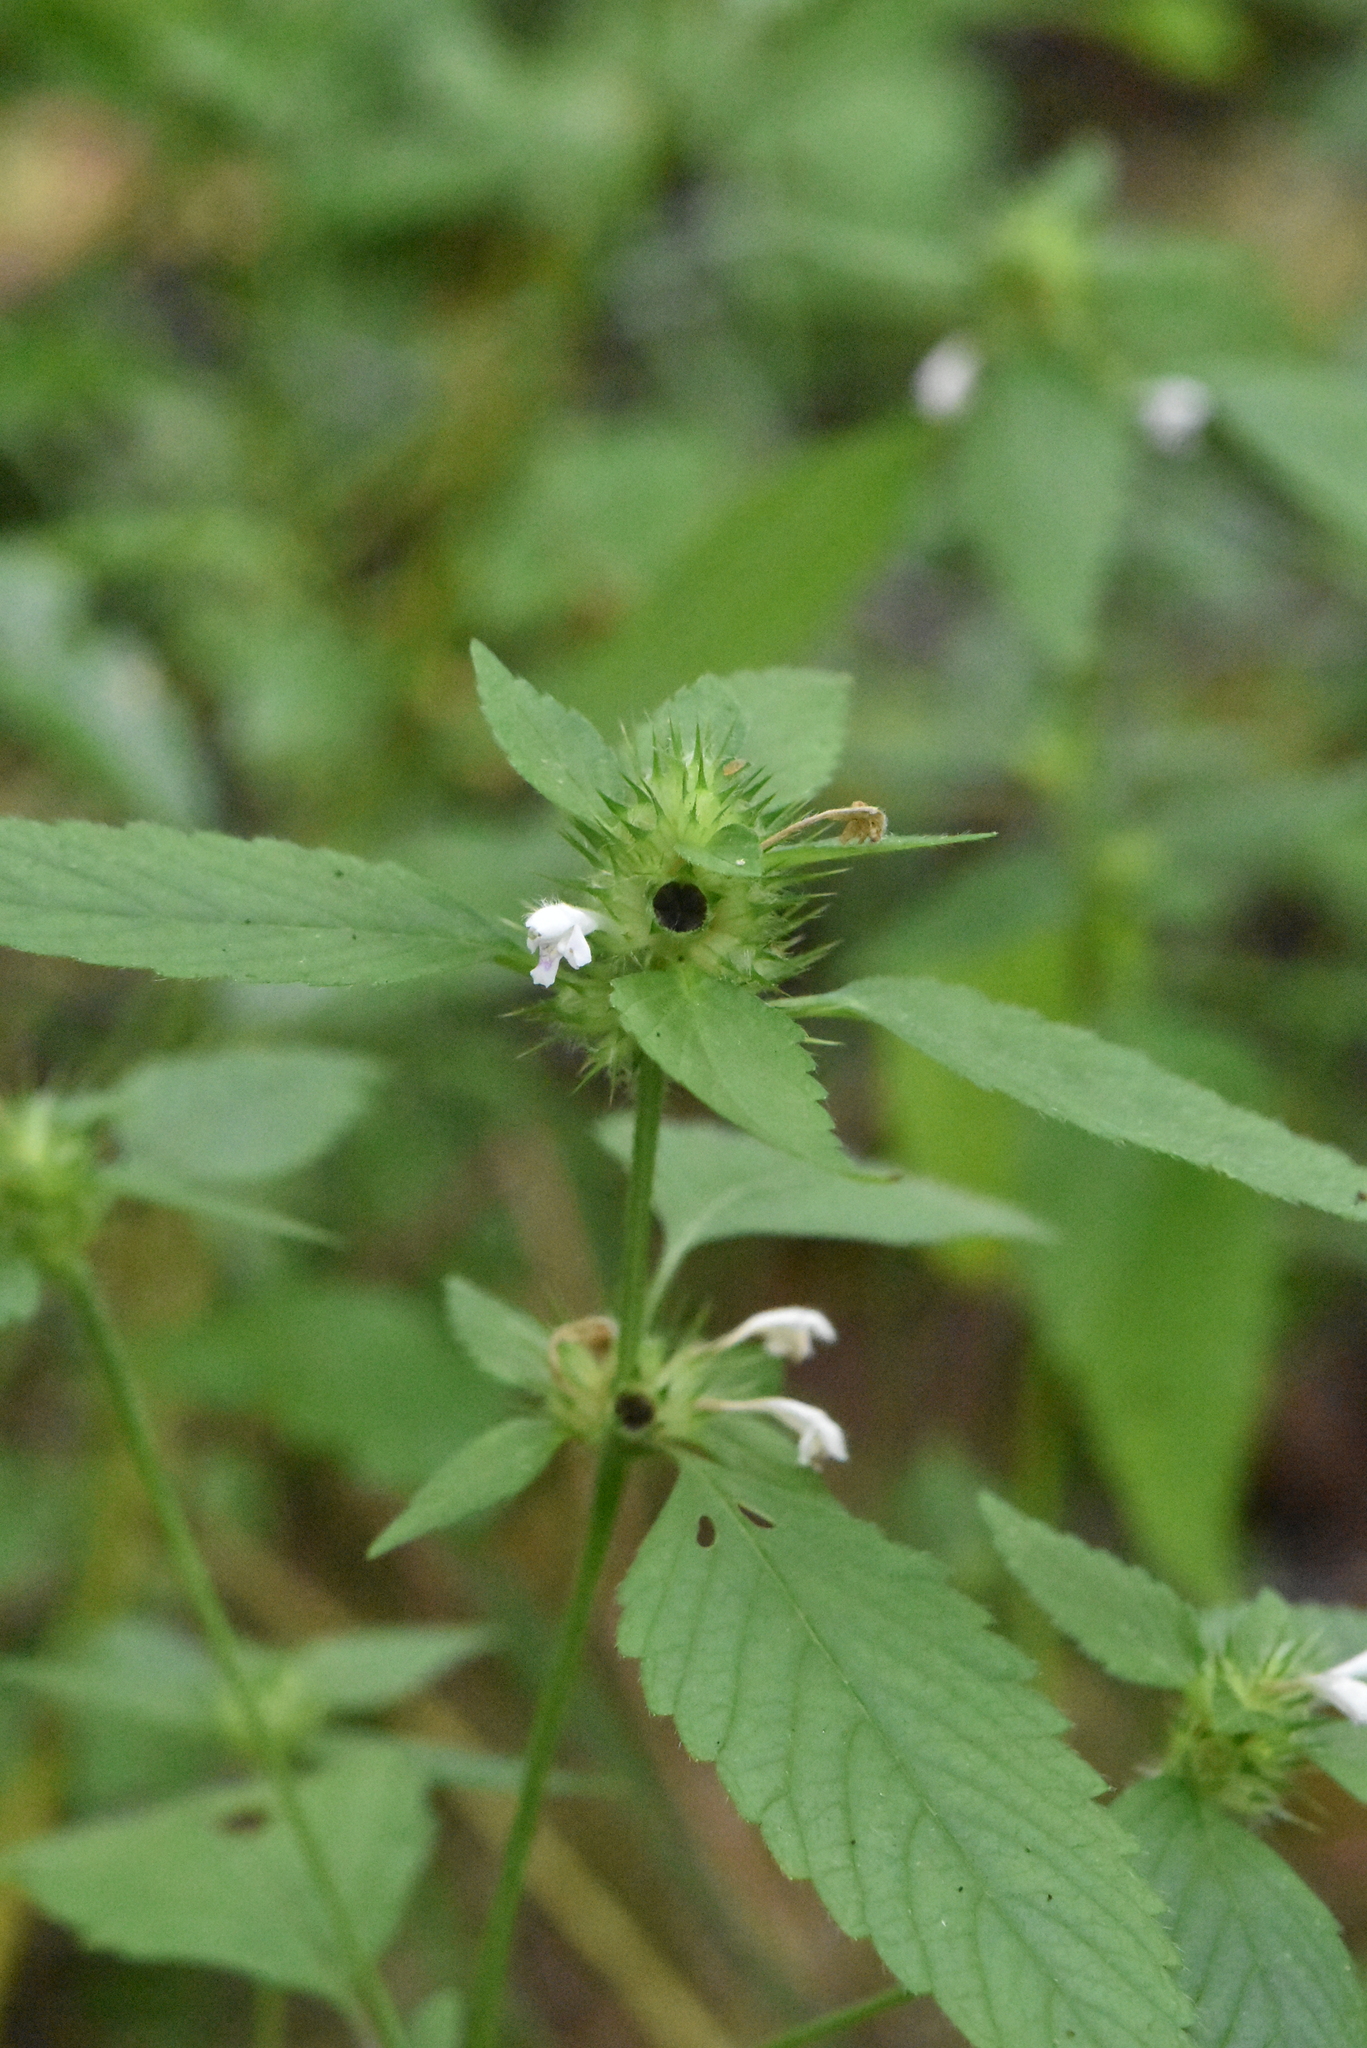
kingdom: Plantae
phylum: Tracheophyta
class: Magnoliopsida
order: Lamiales
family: Lamiaceae
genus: Galeopsis
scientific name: Galeopsis tetrahit
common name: Common hemp-nettle
